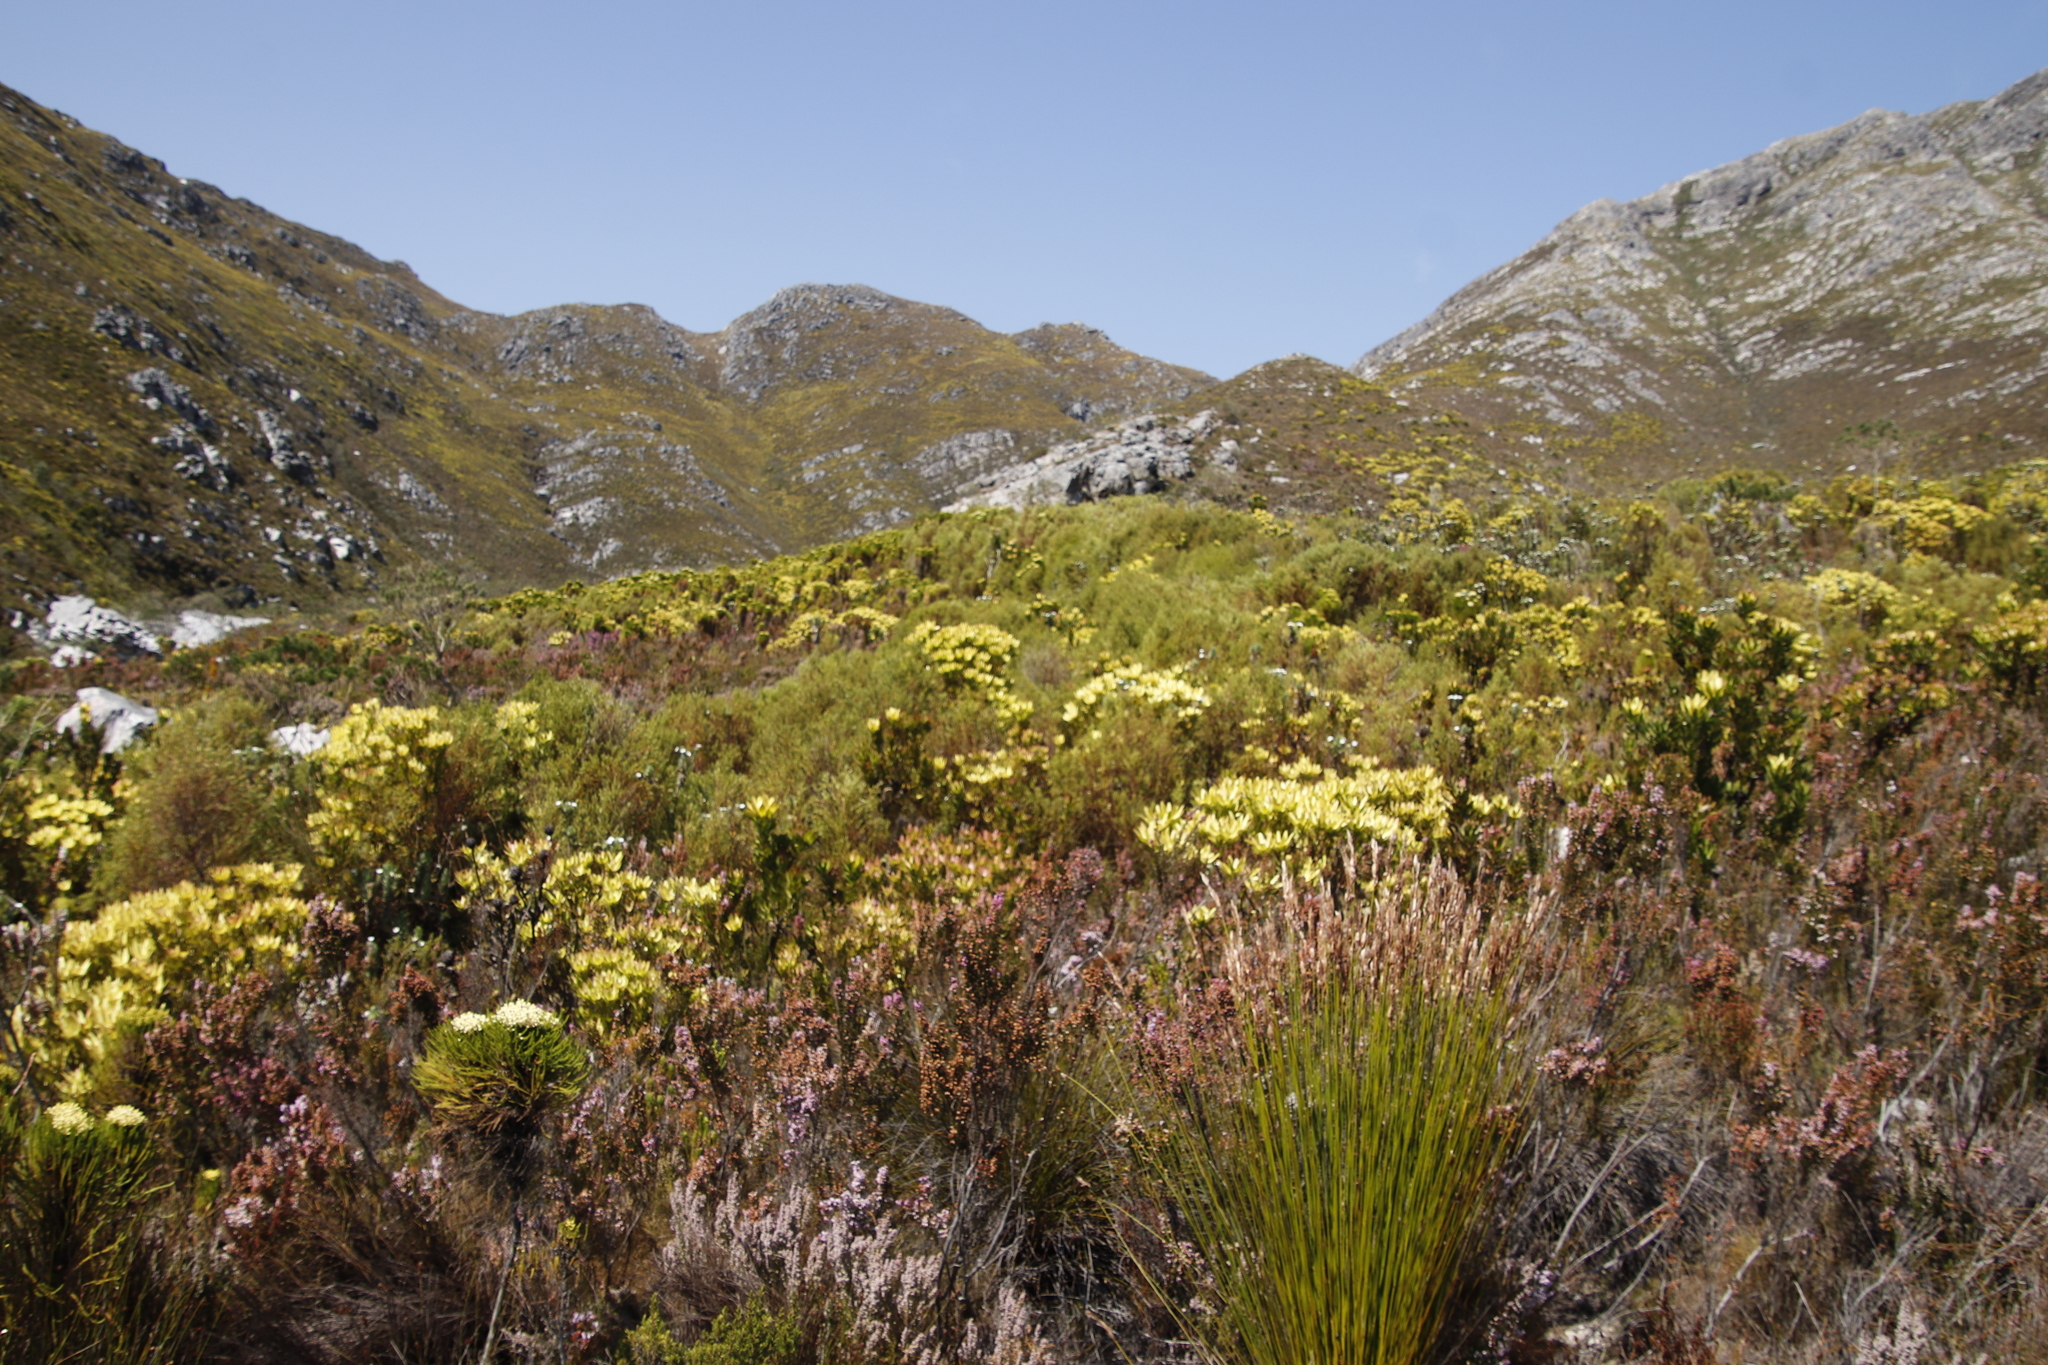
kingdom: Plantae
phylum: Tracheophyta
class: Magnoliopsida
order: Proteales
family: Proteaceae
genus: Leucadendron
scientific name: Leucadendron gandogeri
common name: Broad-leaf conebush
